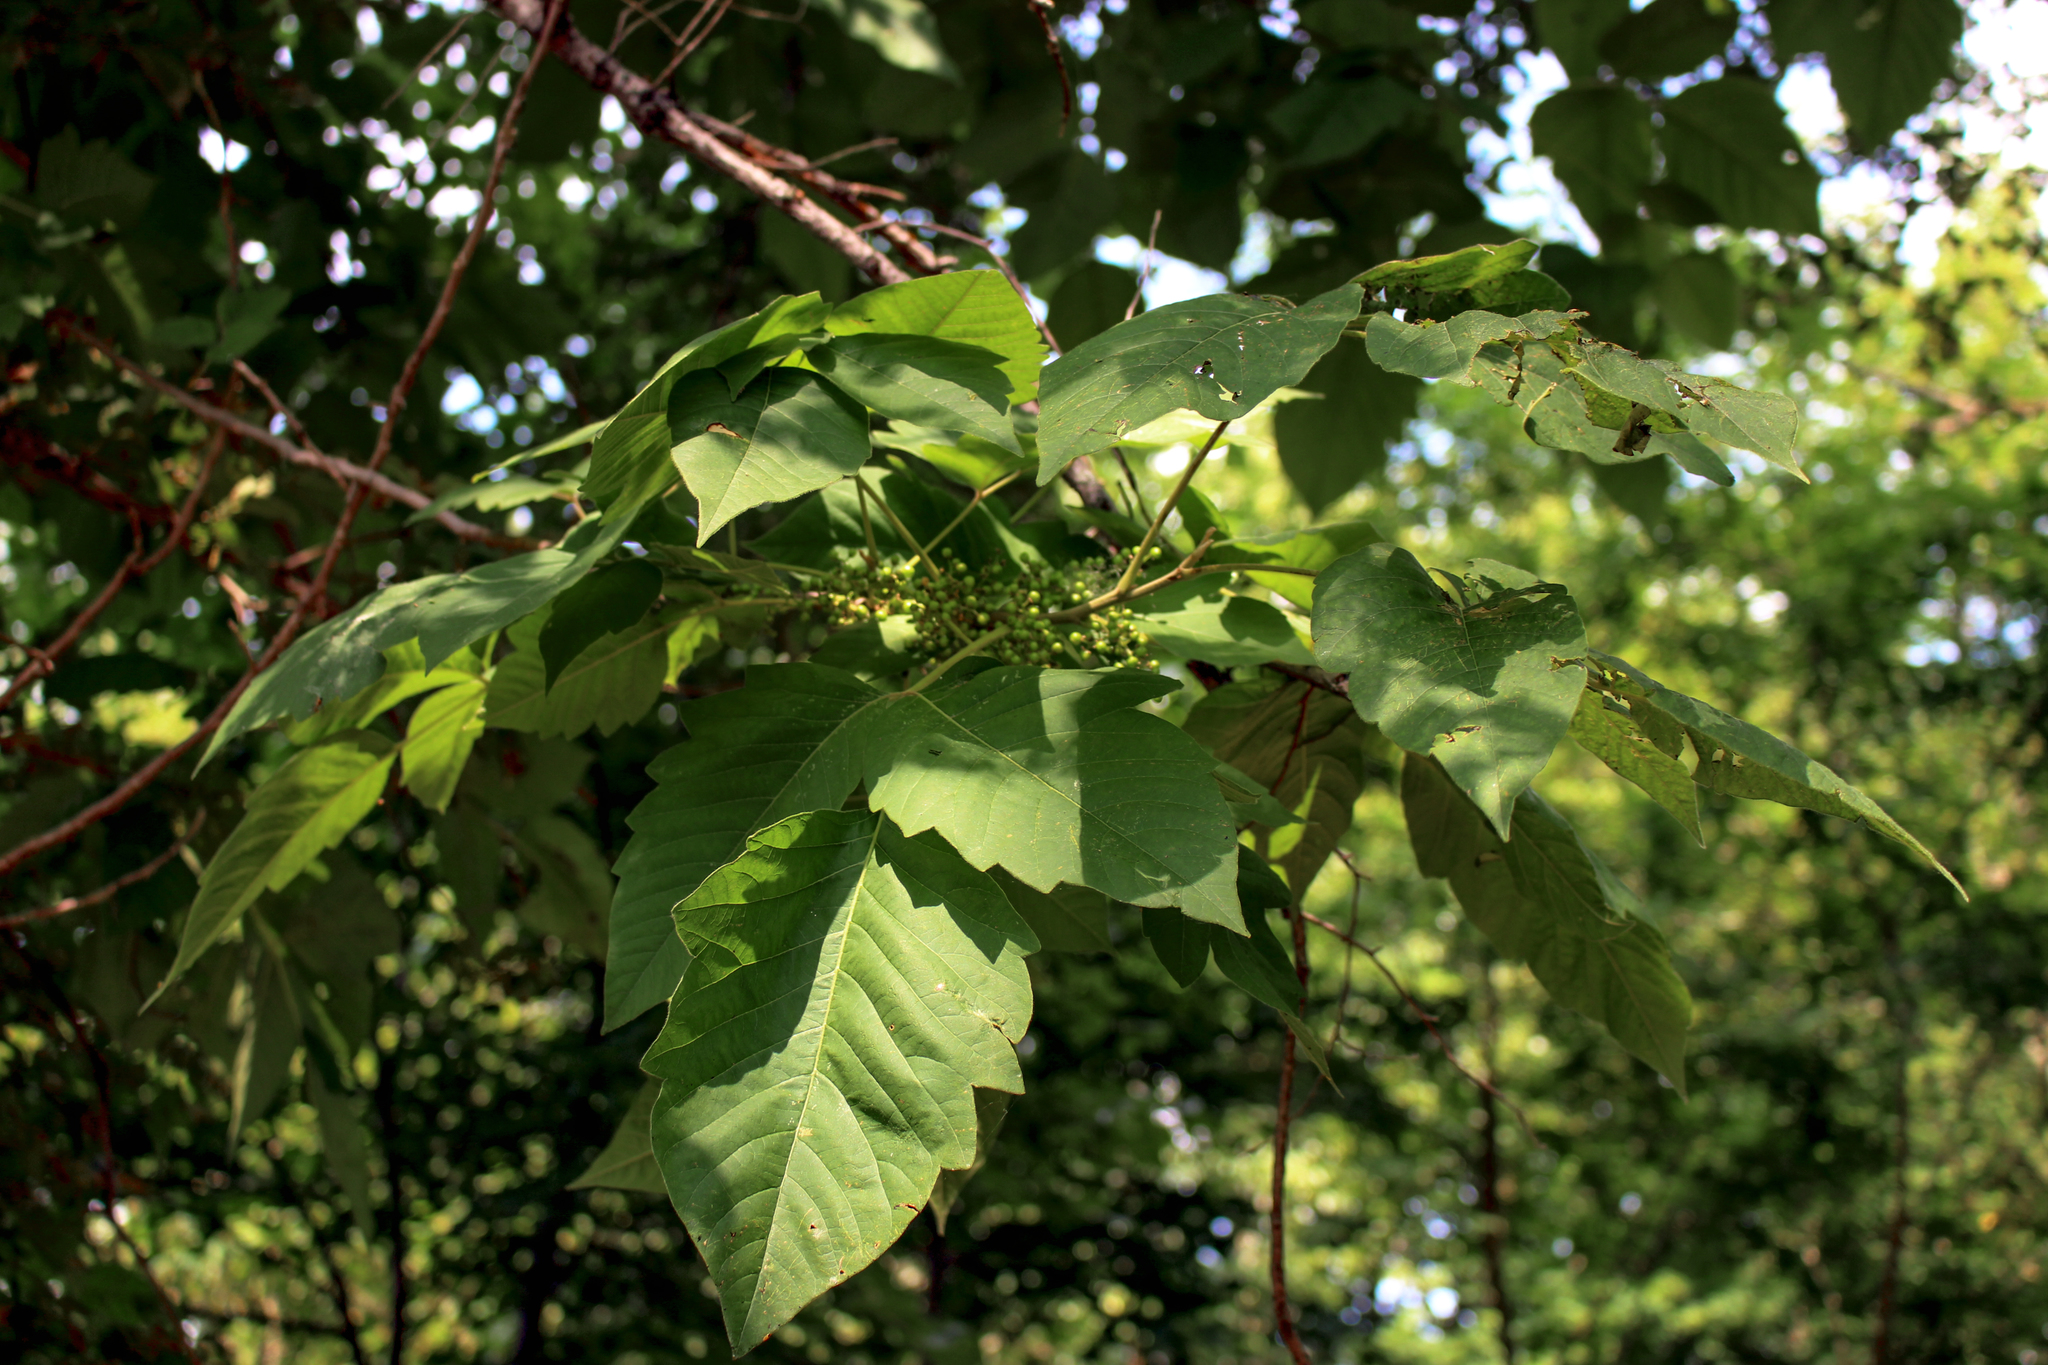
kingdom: Plantae
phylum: Tracheophyta
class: Magnoliopsida
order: Sapindales
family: Anacardiaceae
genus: Toxicodendron
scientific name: Toxicodendron radicans
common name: Poison ivy
